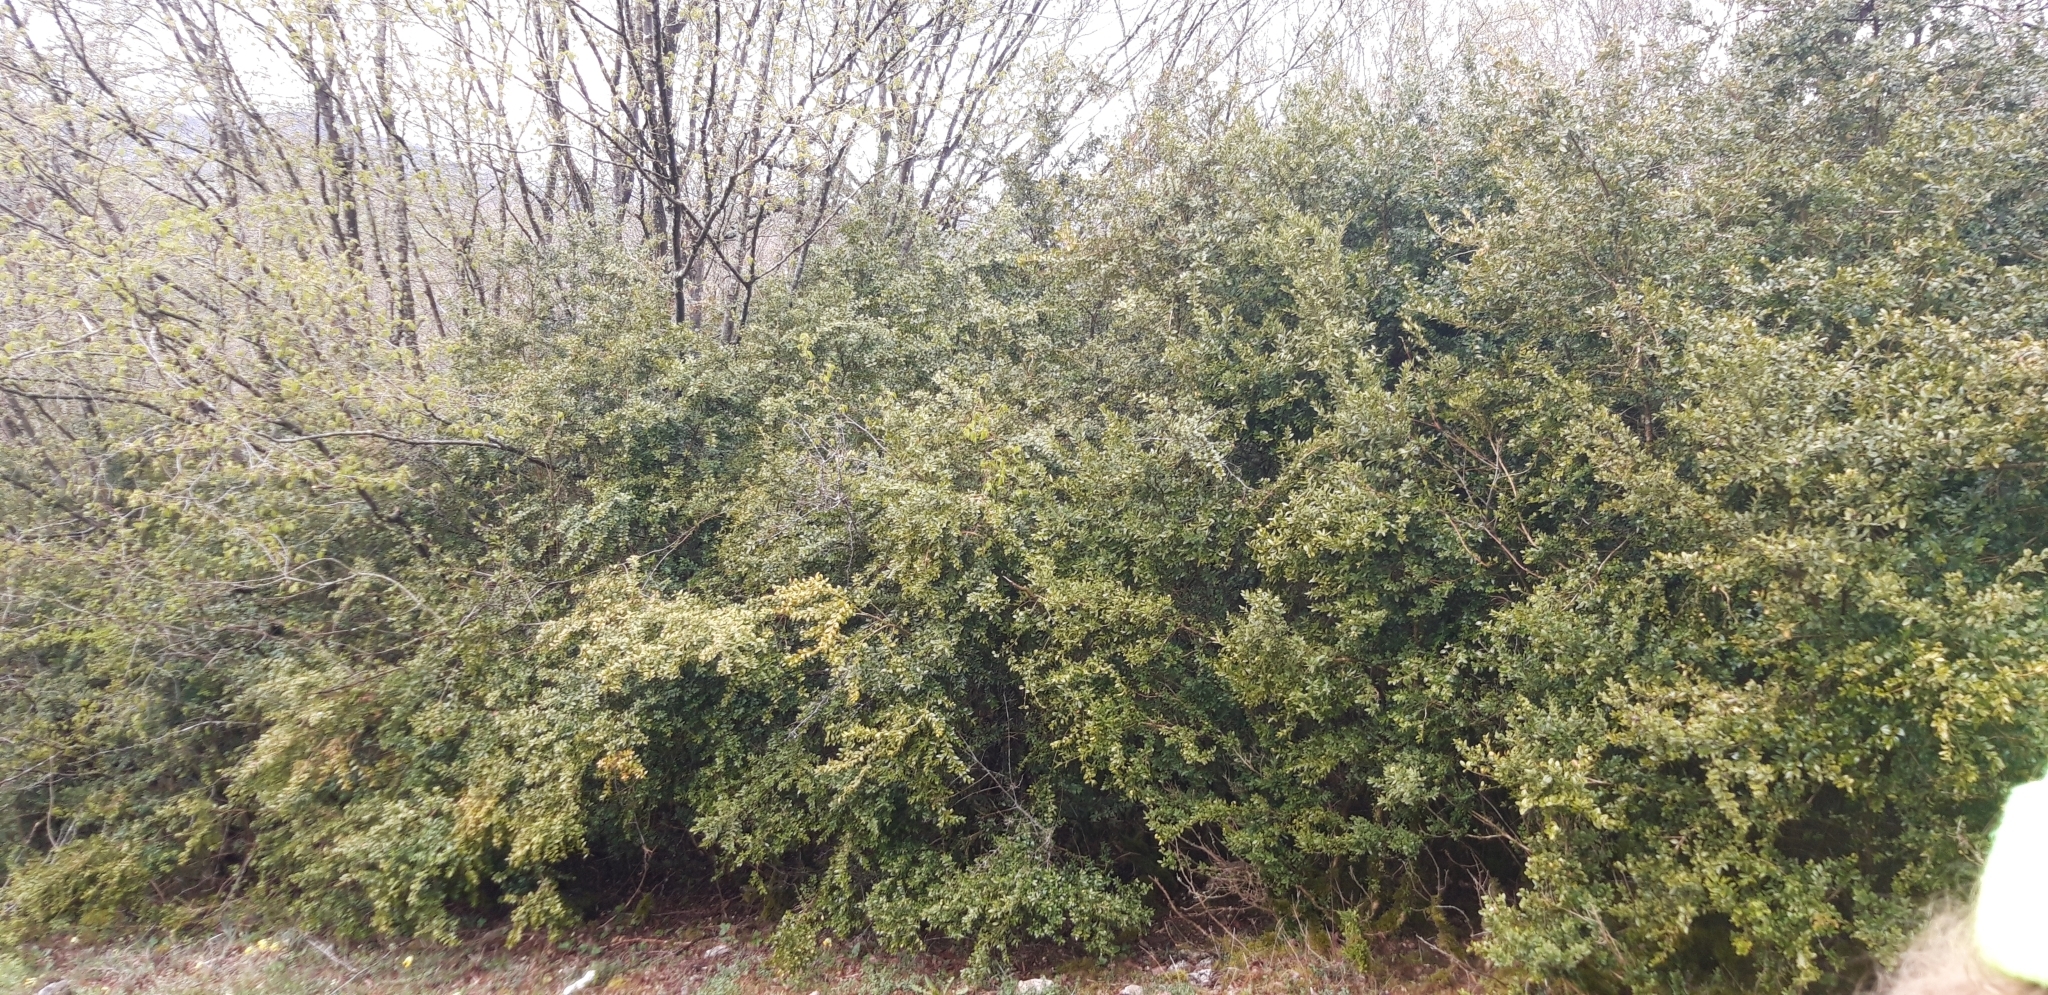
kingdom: Plantae
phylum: Tracheophyta
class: Magnoliopsida
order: Buxales
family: Buxaceae
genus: Buxus
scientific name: Buxus sempervirens
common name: Box
